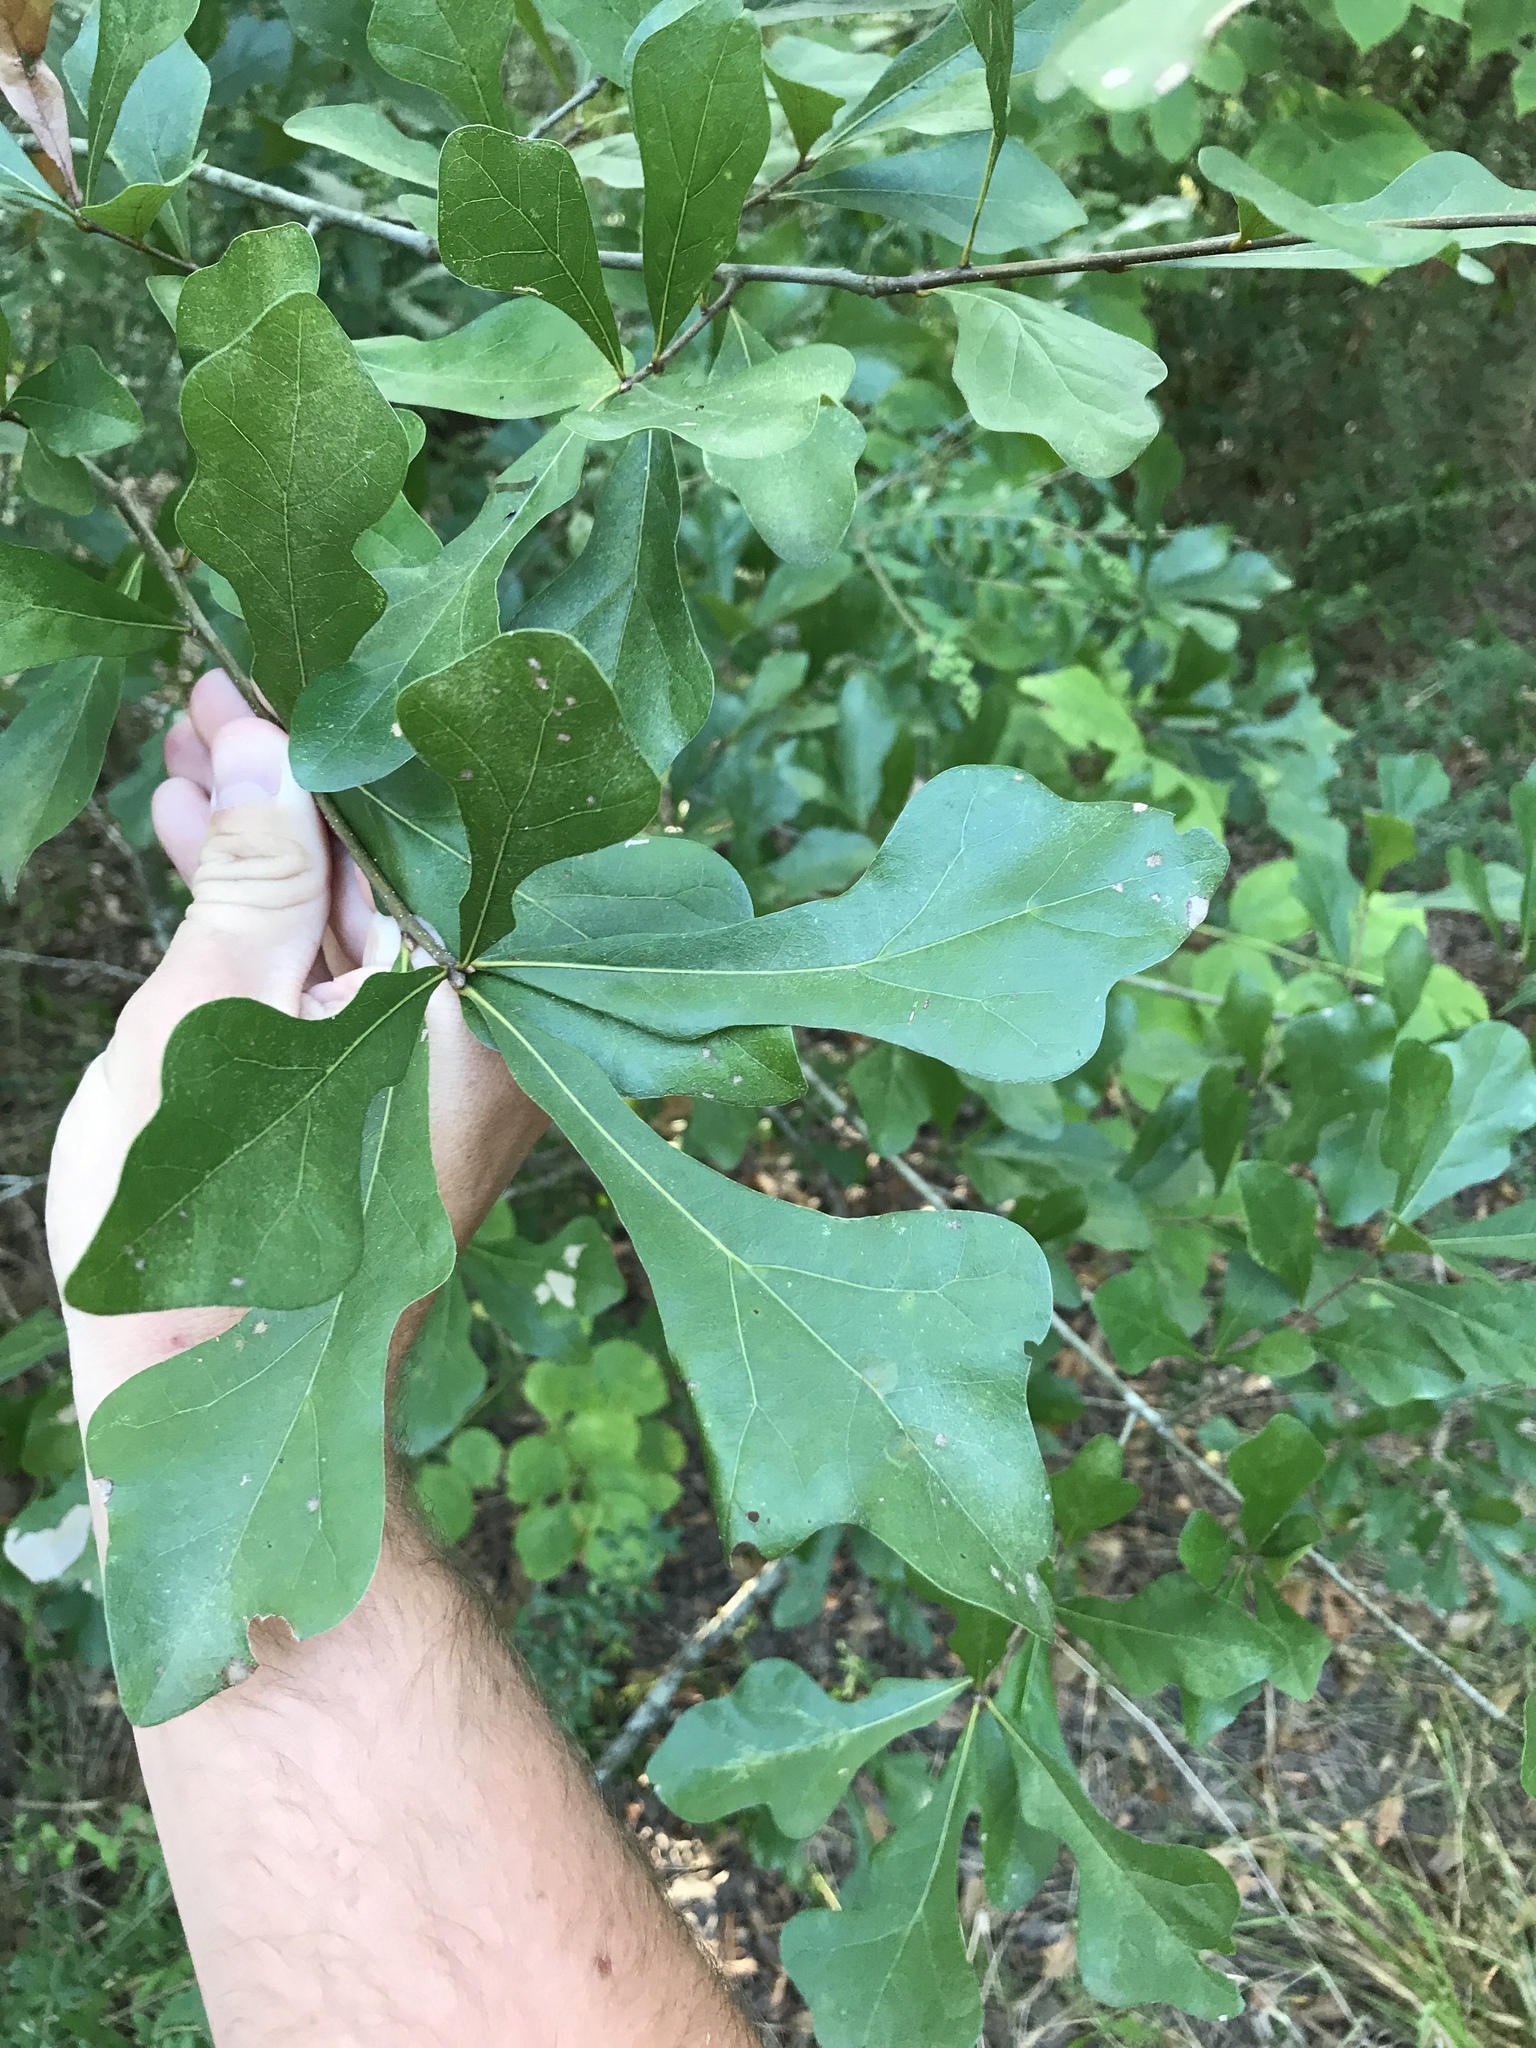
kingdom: Plantae
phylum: Tracheophyta
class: Magnoliopsida
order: Fagales
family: Fagaceae
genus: Quercus
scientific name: Quercus nigra
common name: Water oak
